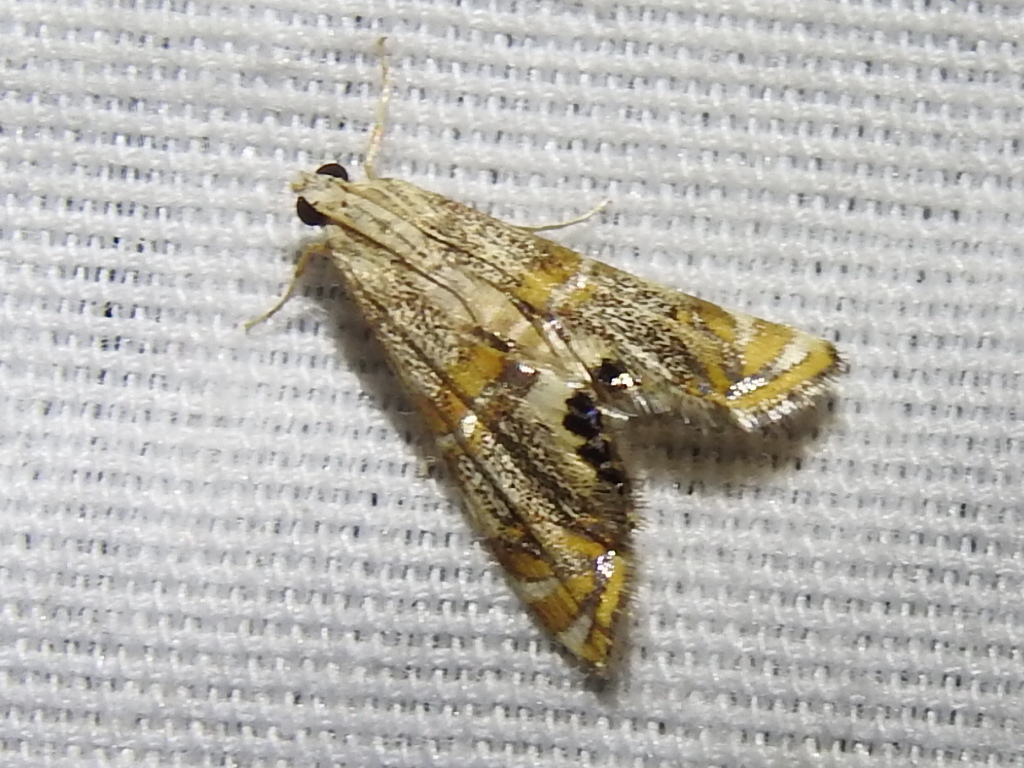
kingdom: Animalia
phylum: Arthropoda
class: Insecta
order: Lepidoptera
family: Crambidae
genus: Petrophila
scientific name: Petrophila bifascialis
